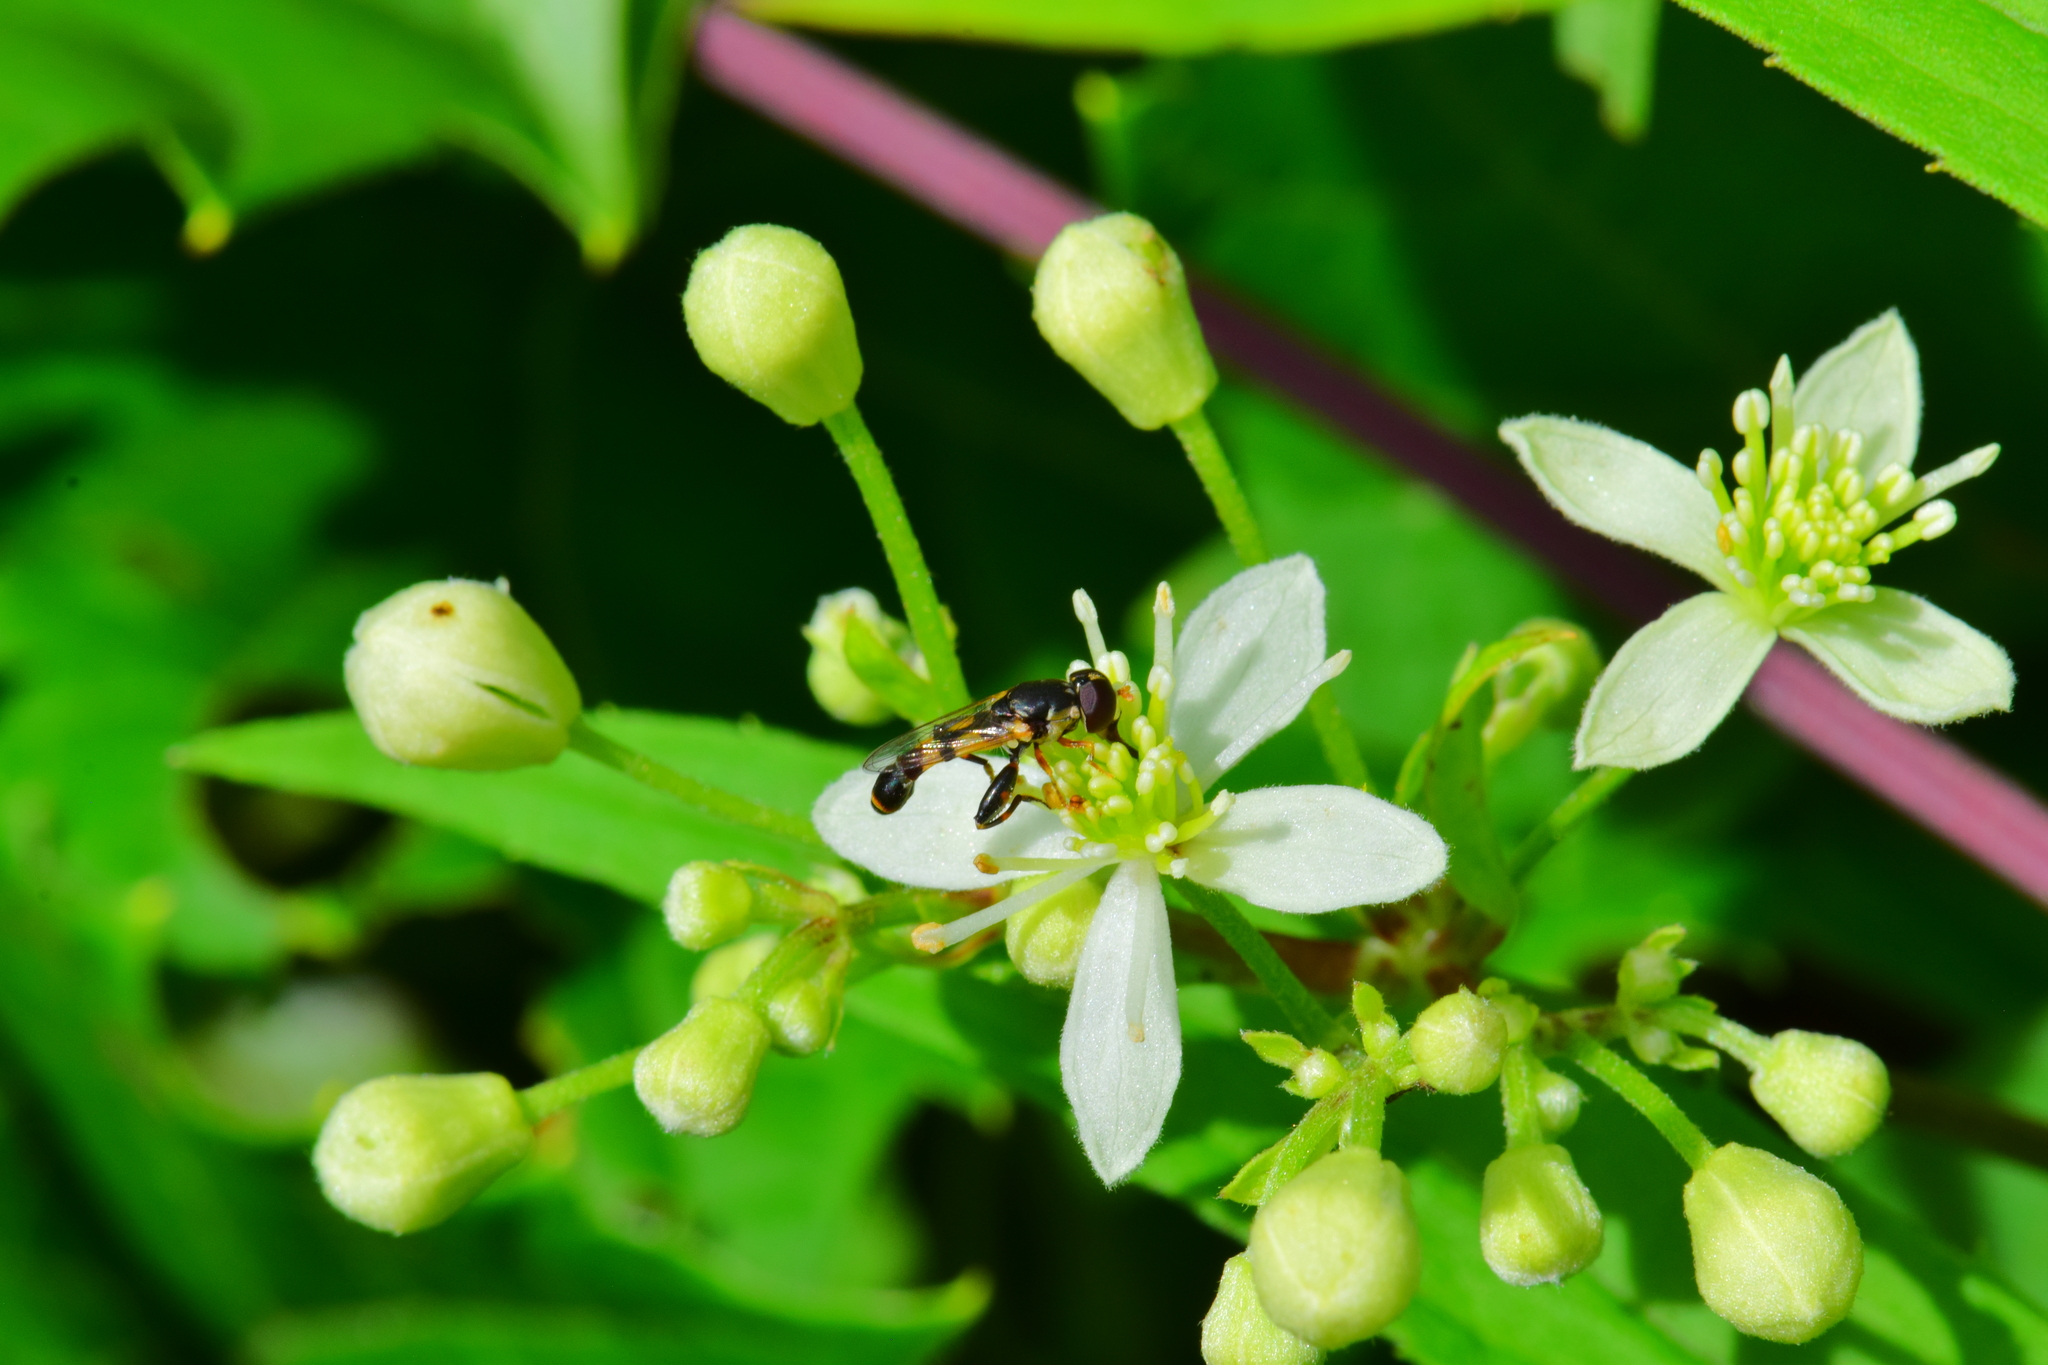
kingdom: Animalia
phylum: Arthropoda
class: Insecta
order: Diptera
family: Syrphidae
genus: Syritta
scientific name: Syritta pipiens
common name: Hover fly
